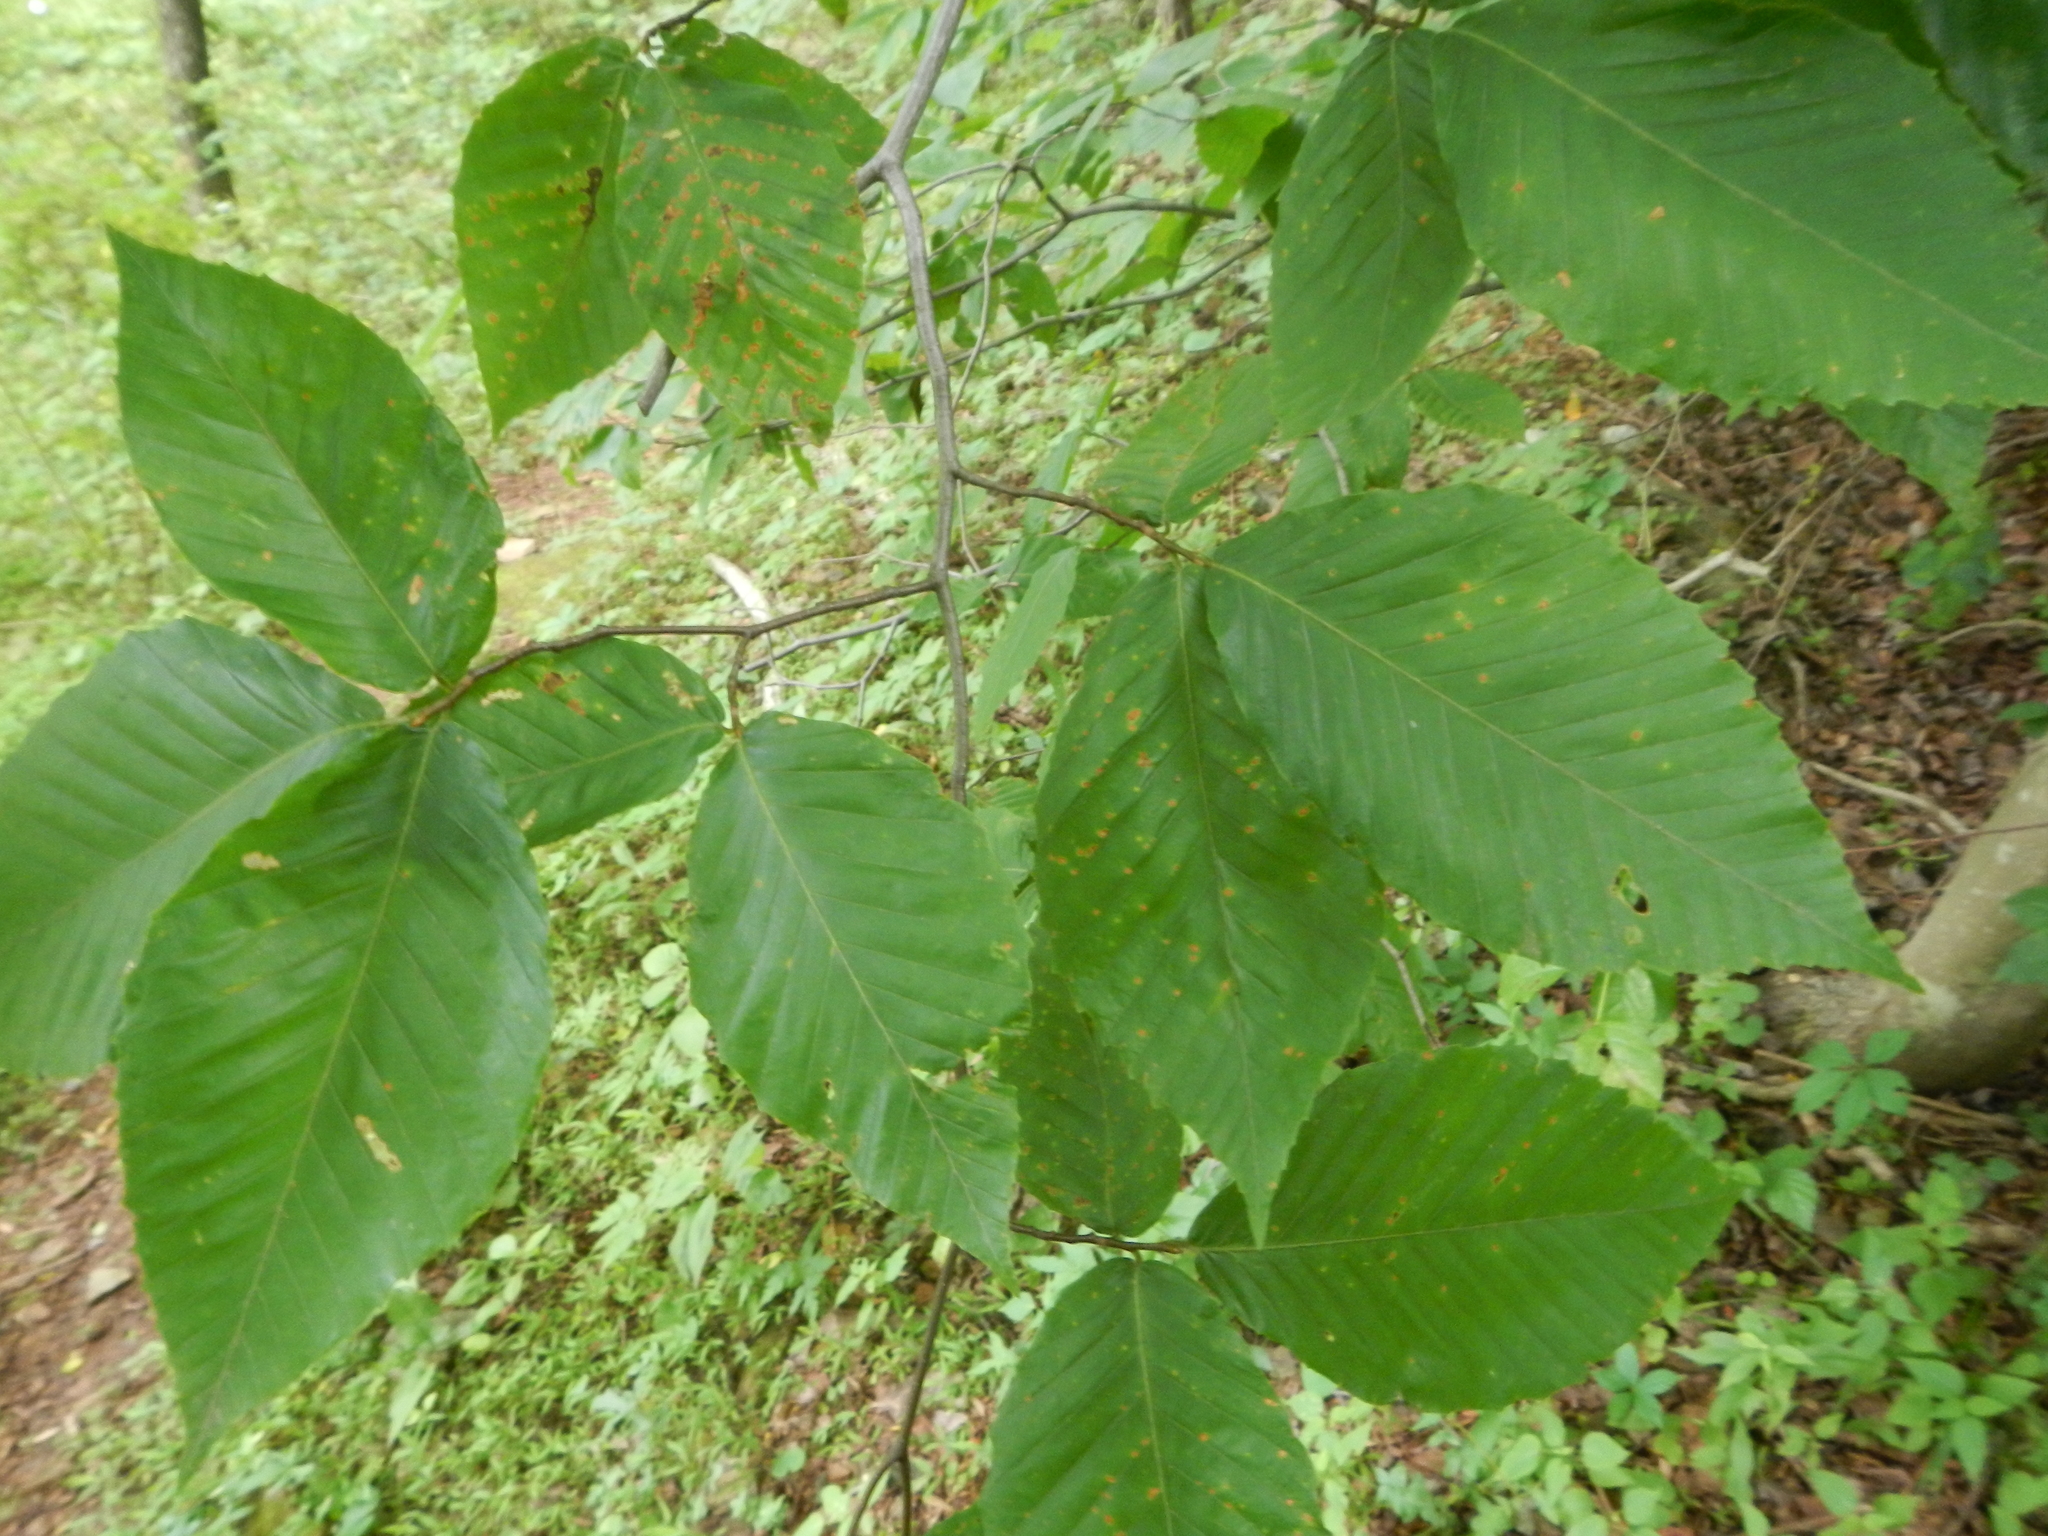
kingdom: Plantae
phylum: Tracheophyta
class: Magnoliopsida
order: Fagales
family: Fagaceae
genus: Fagus
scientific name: Fagus grandifolia
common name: American beech
